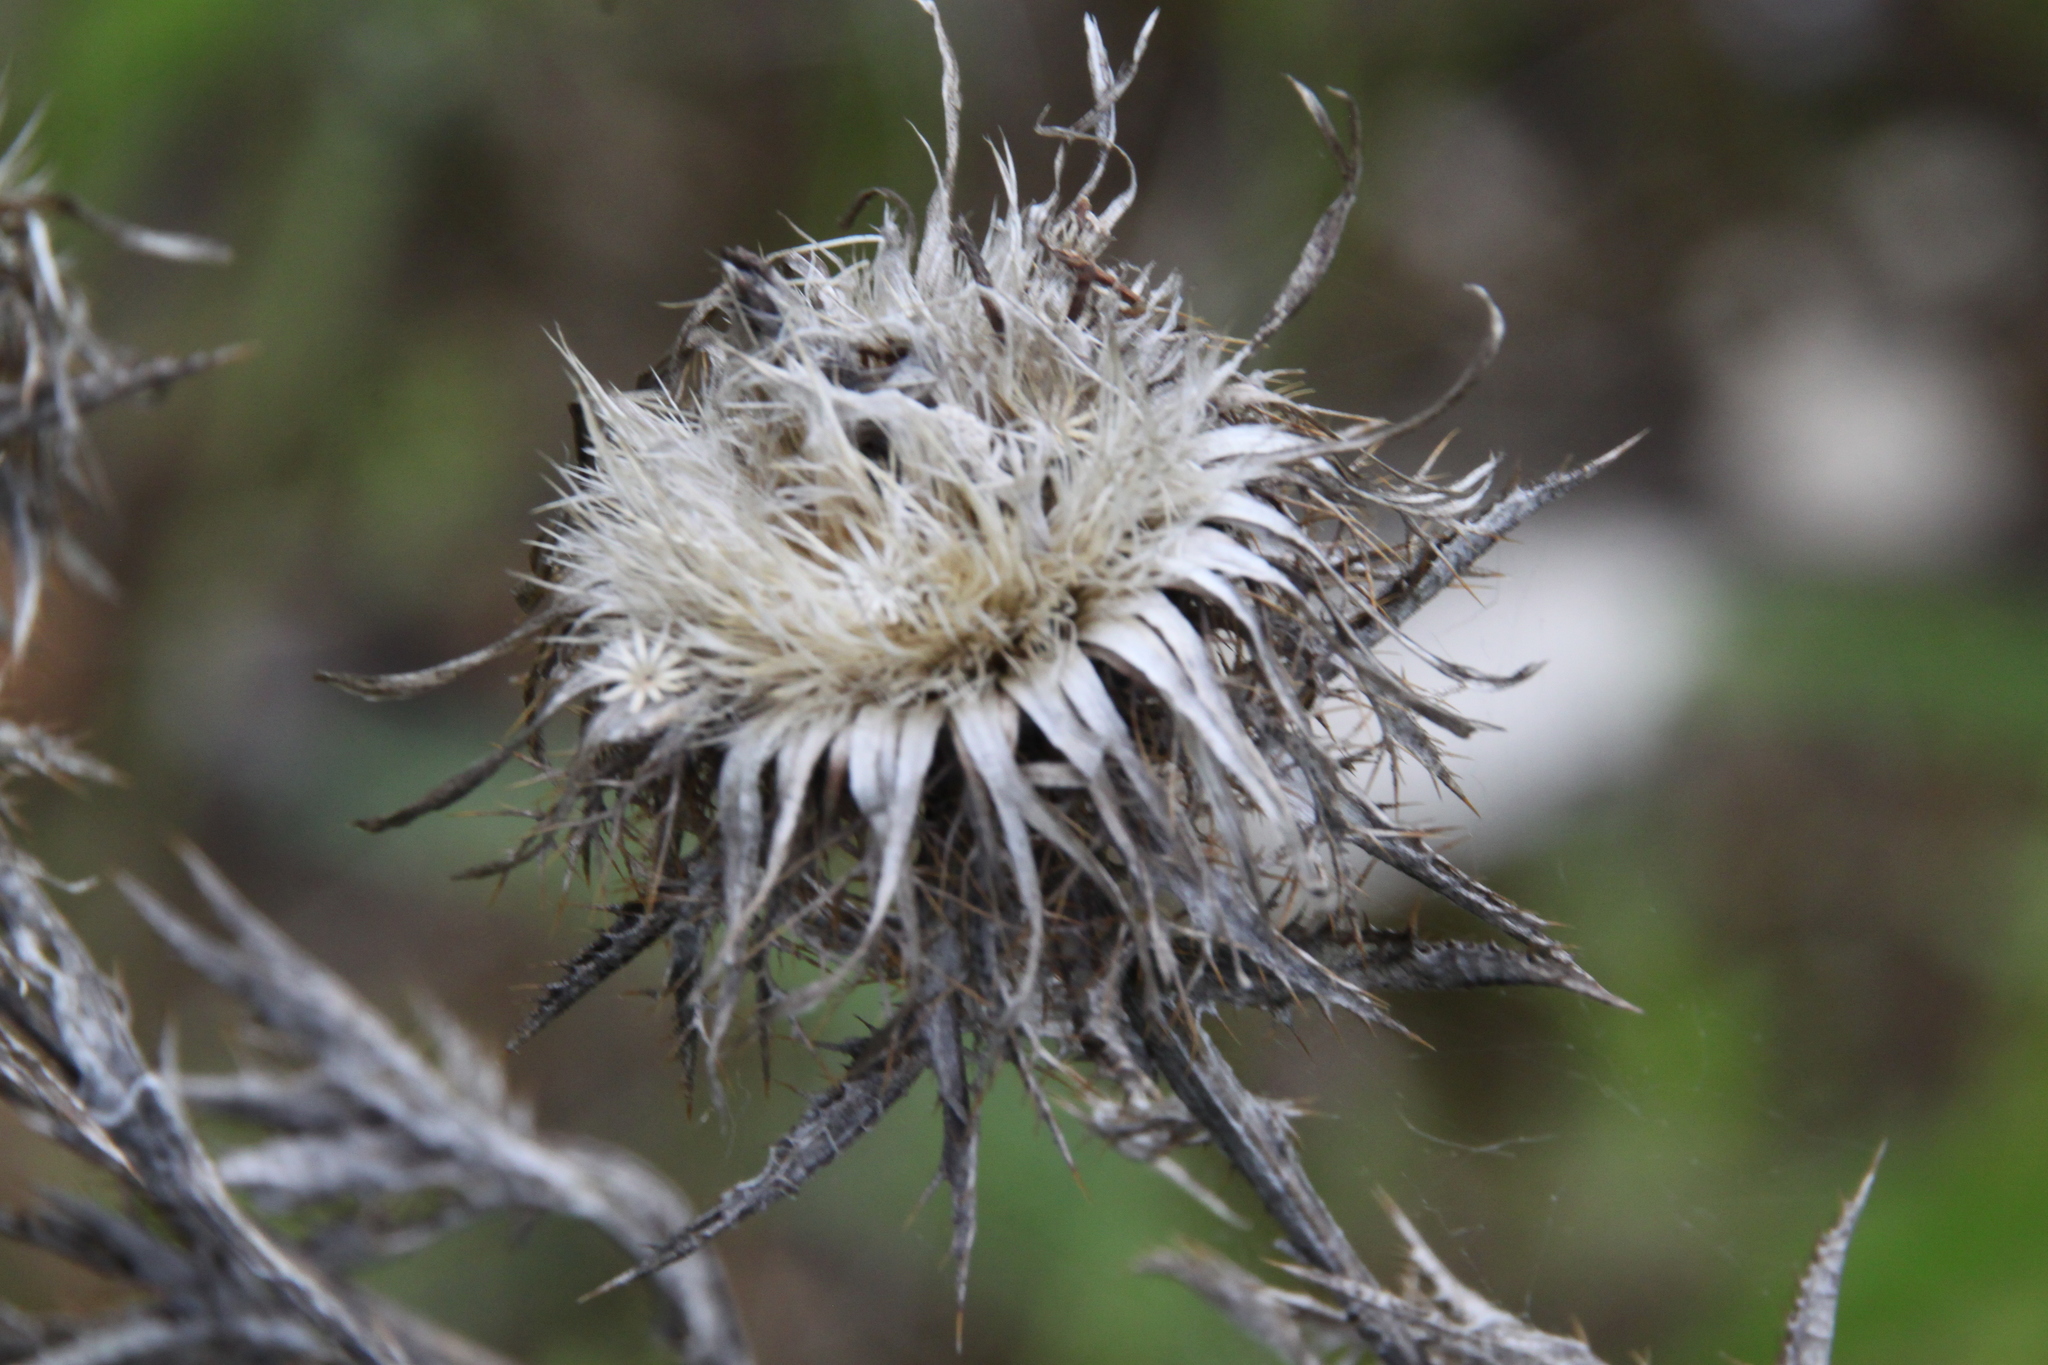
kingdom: Plantae
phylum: Tracheophyta
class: Magnoliopsida
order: Asterales
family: Asteraceae
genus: Carlina
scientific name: Carlina biebersteinii
